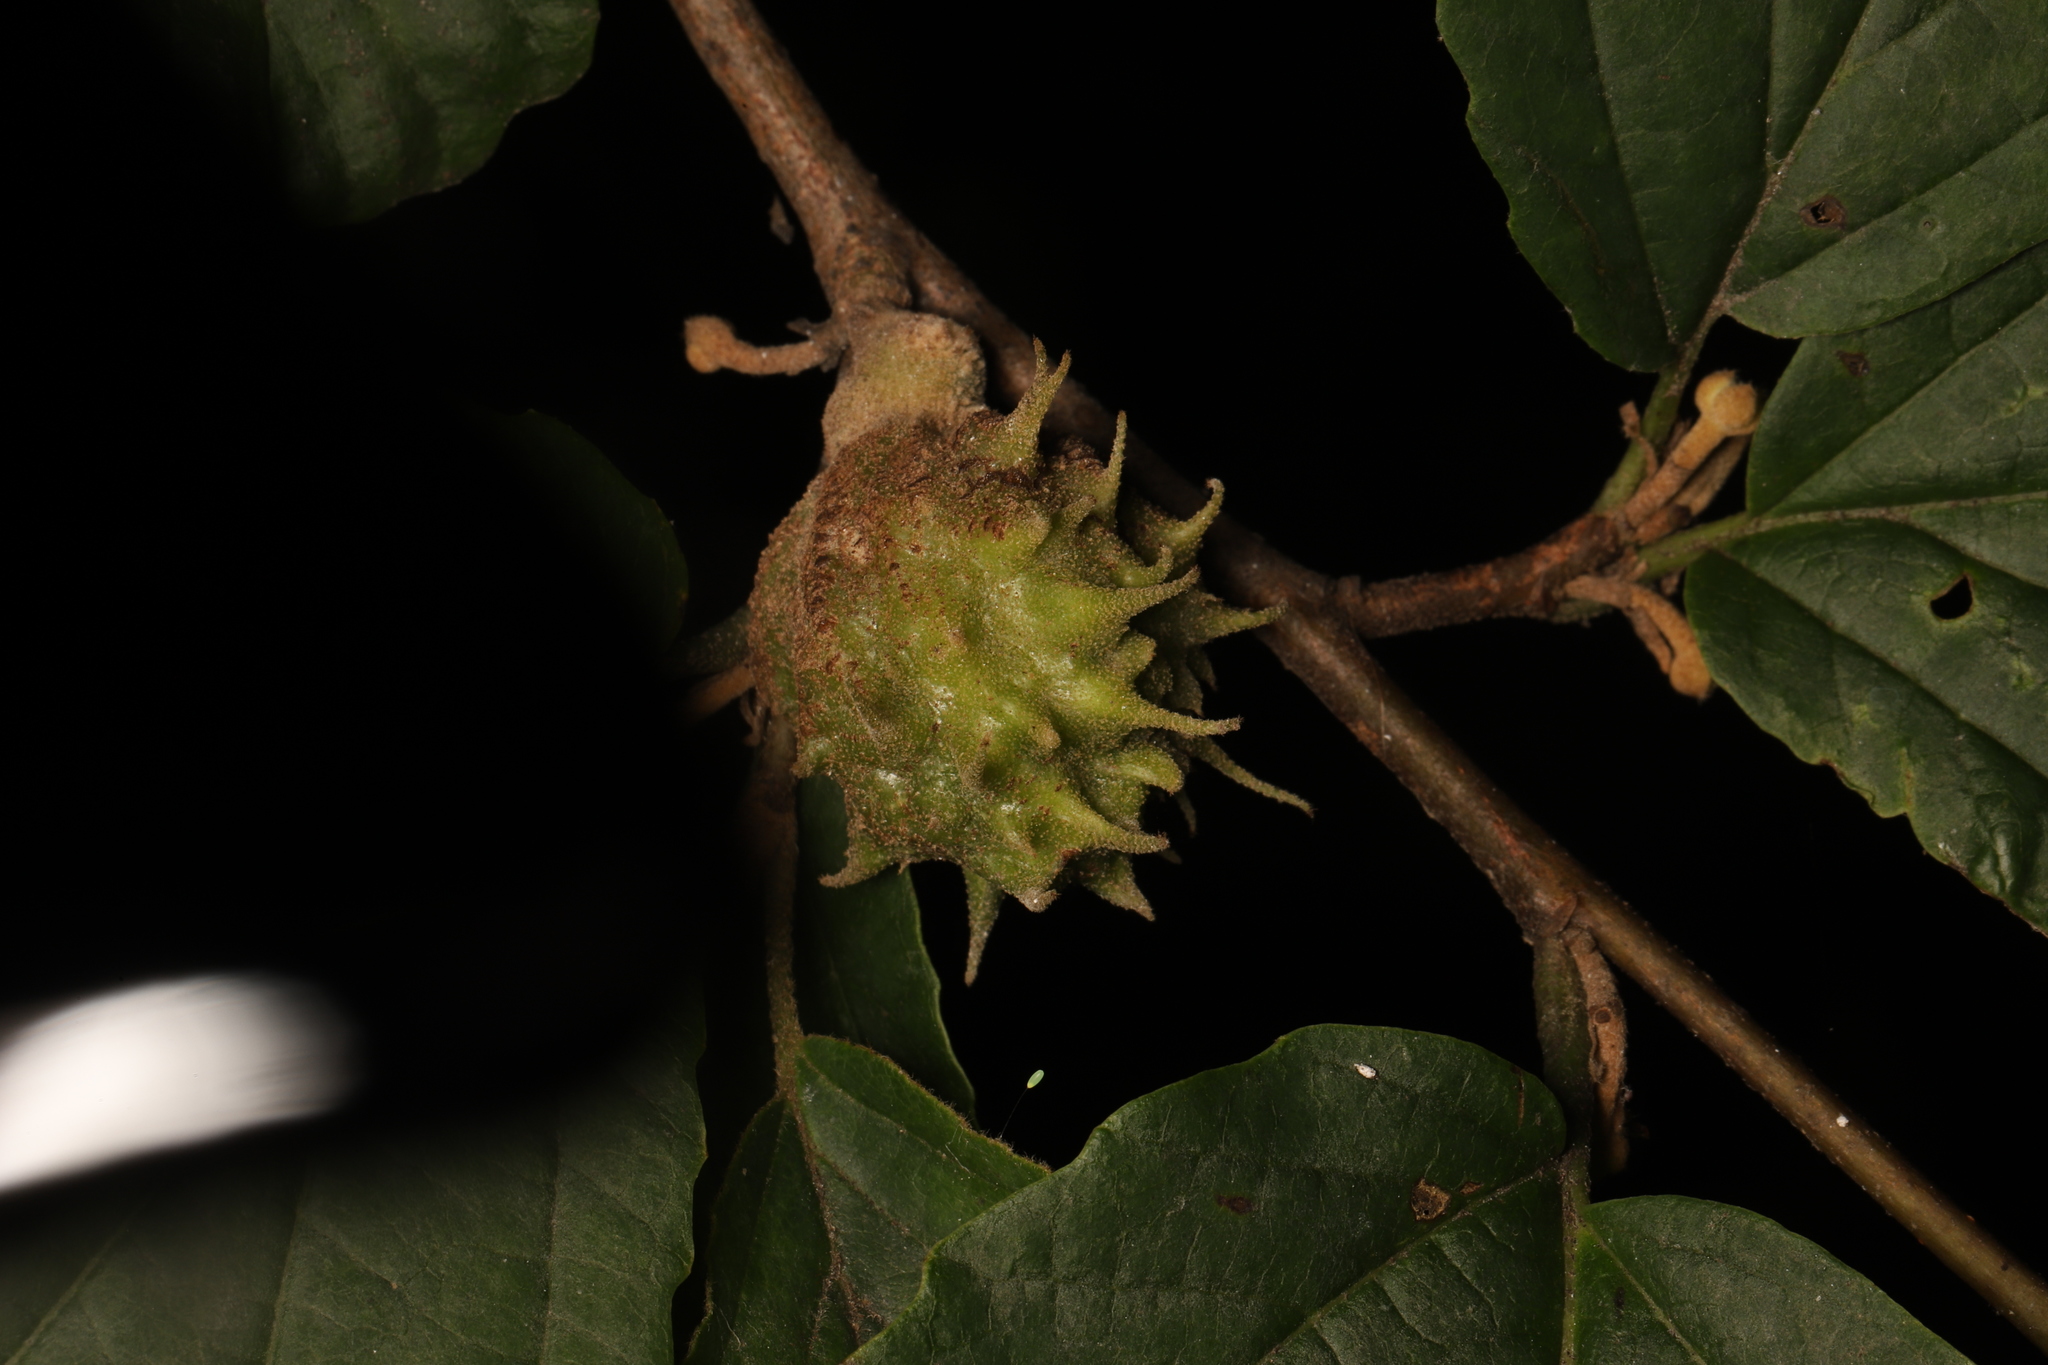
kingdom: Animalia
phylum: Arthropoda
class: Insecta
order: Hemiptera
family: Aphididae
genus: Hamamelistes
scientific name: Hamamelistes spinosus
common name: Witch hazel gall aphid
